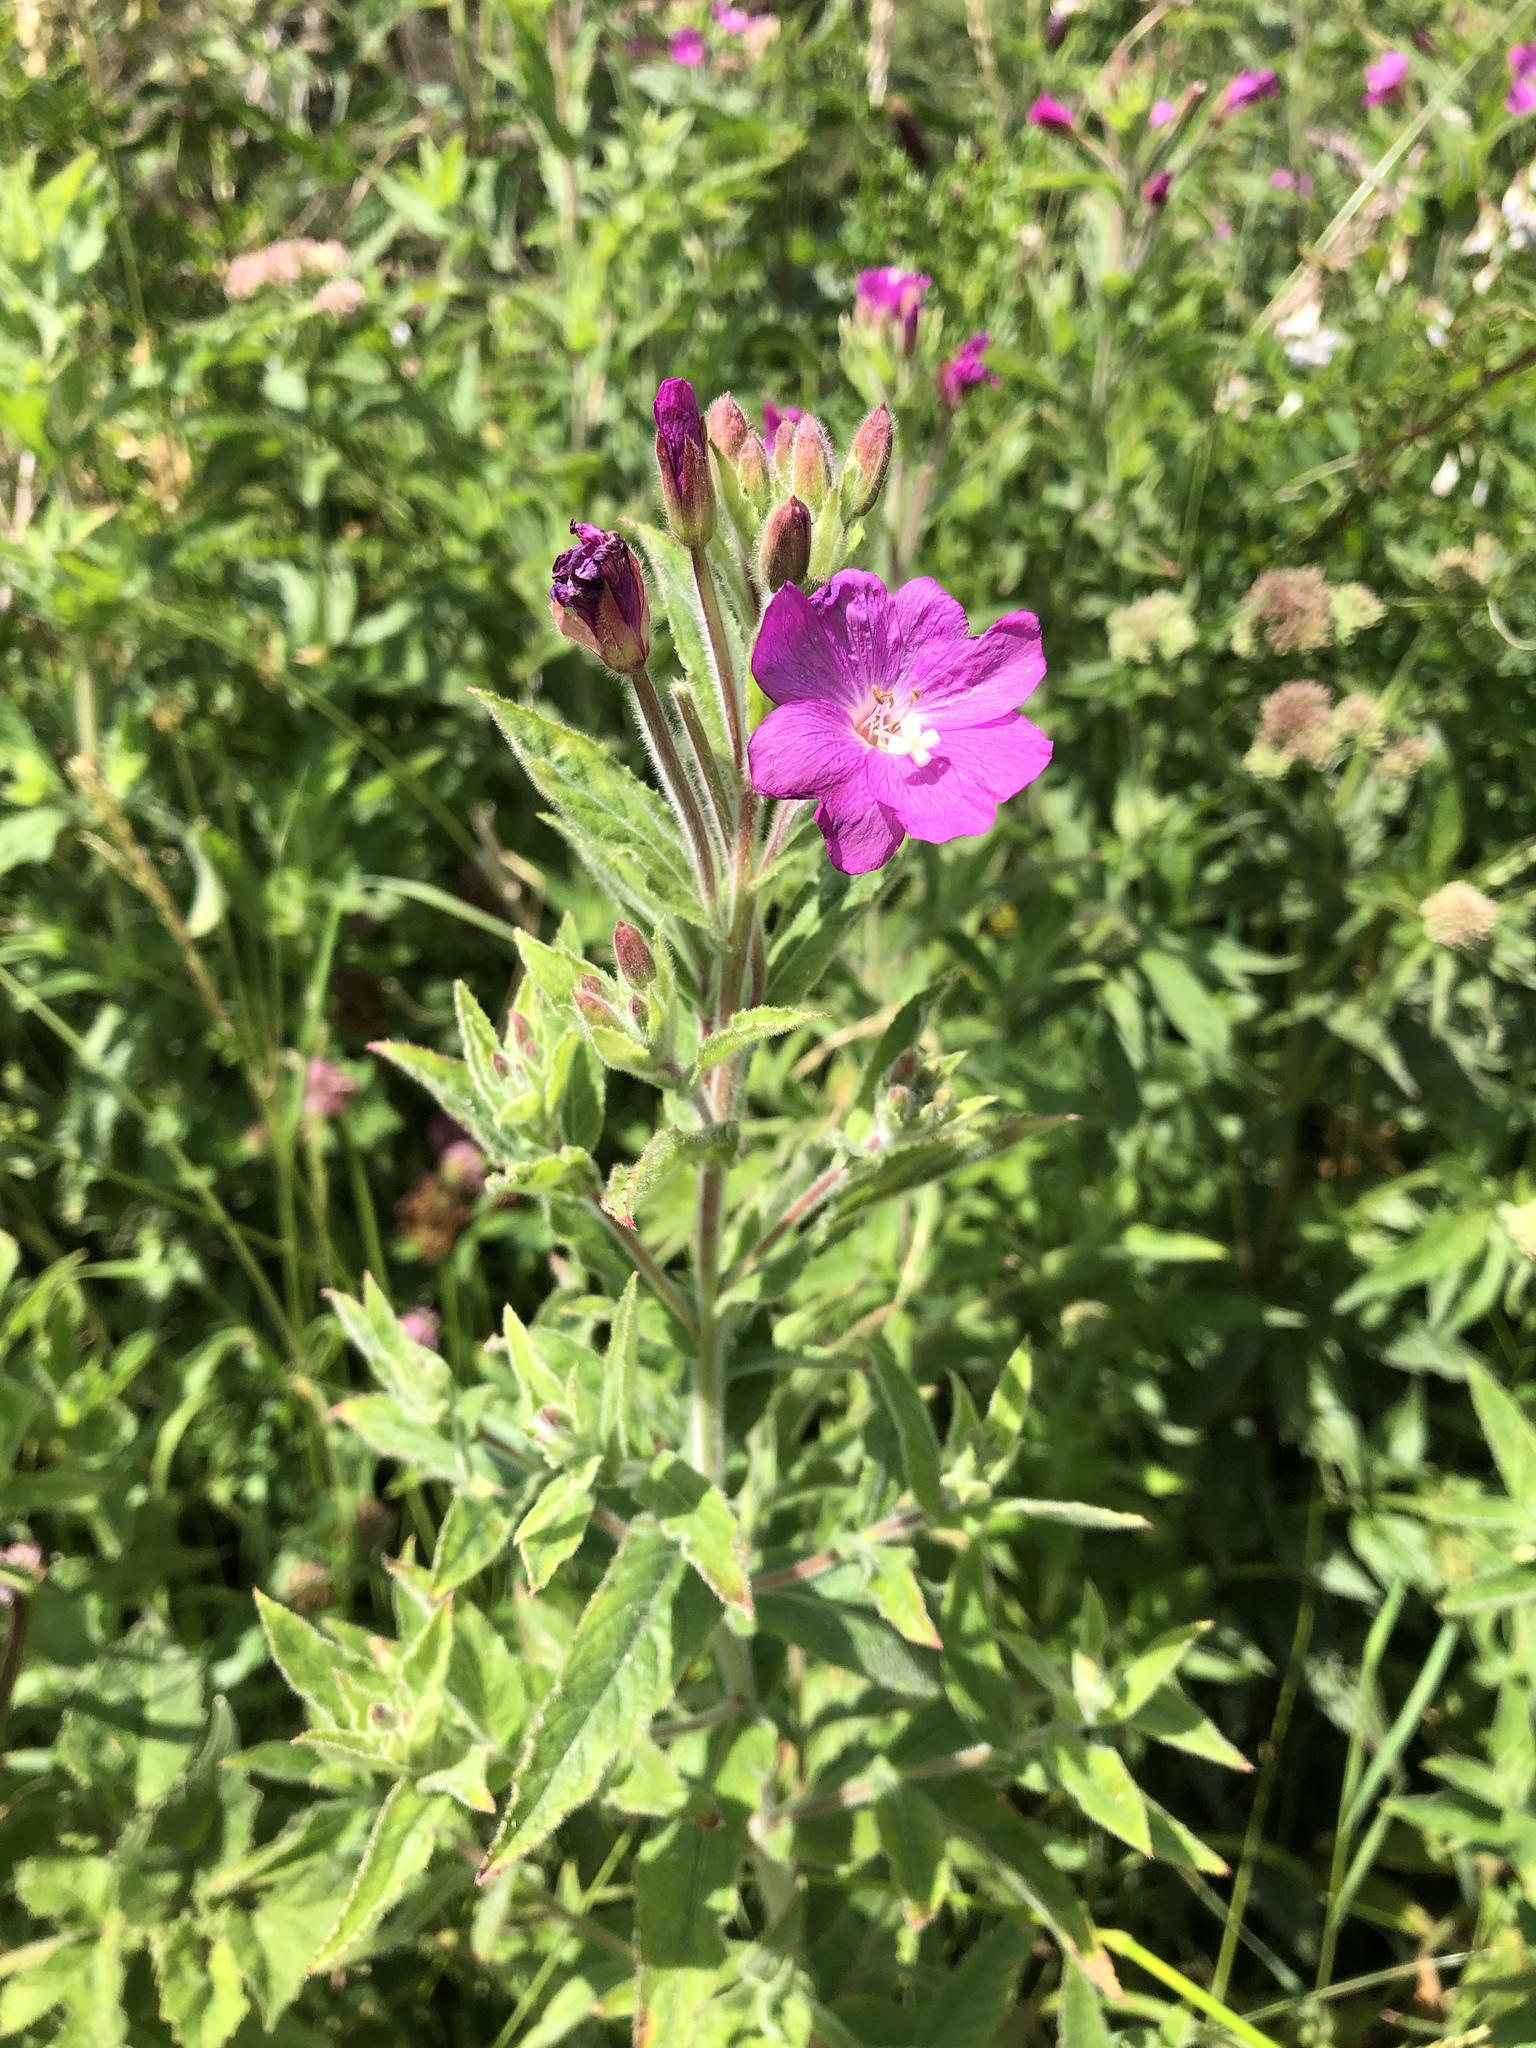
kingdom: Plantae
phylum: Tracheophyta
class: Magnoliopsida
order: Myrtales
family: Onagraceae
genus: Epilobium
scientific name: Epilobium hirsutum
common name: Great willowherb
